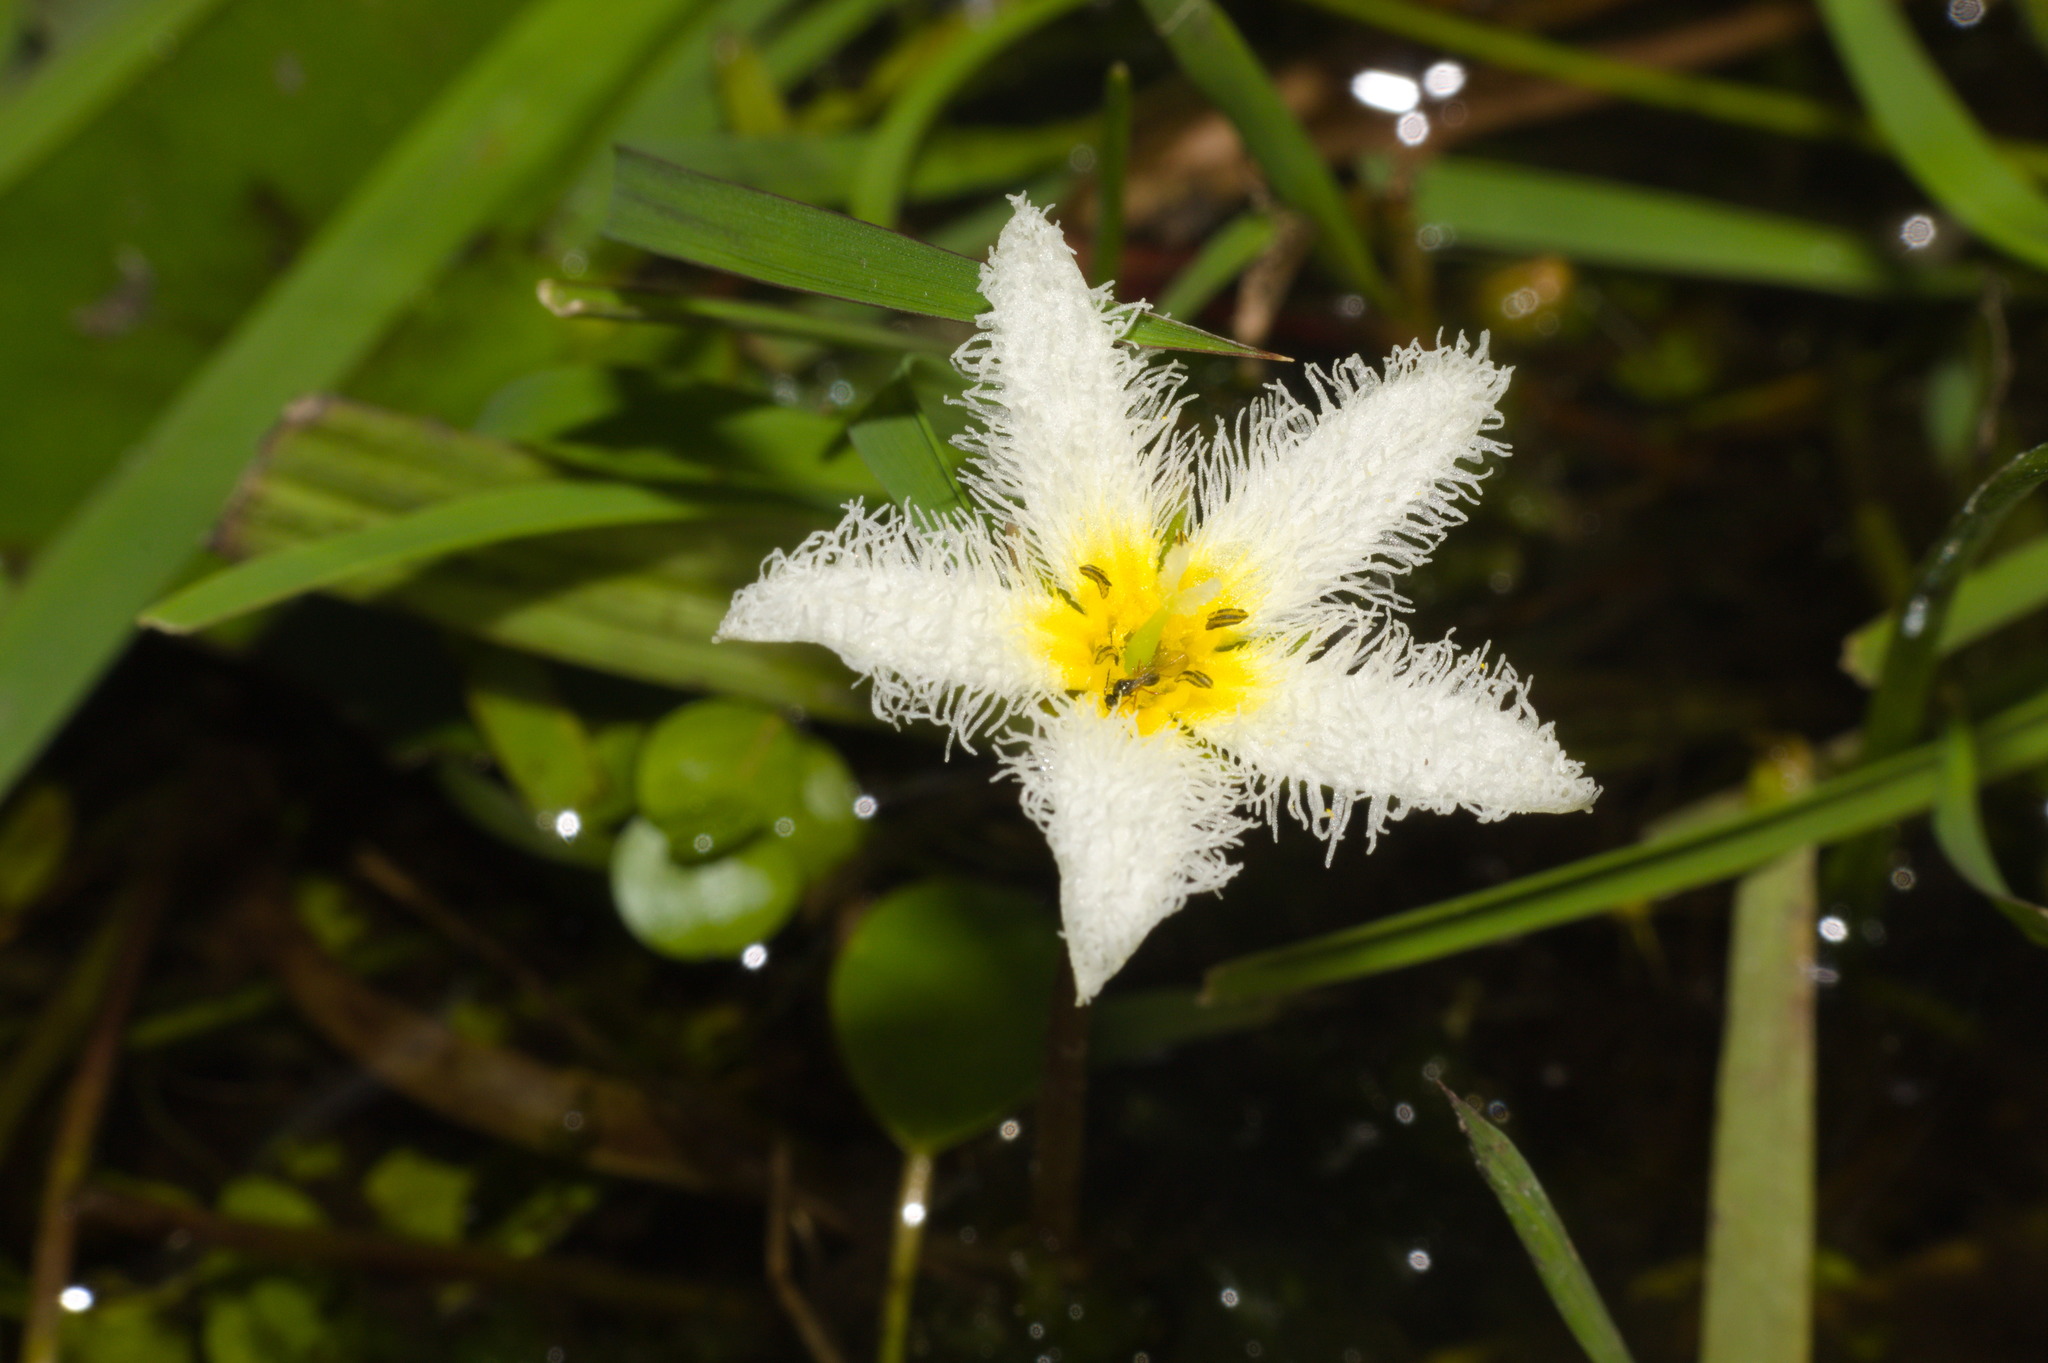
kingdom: Plantae
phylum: Tracheophyta
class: Magnoliopsida
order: Asterales
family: Menyanthaceae
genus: Nymphoides
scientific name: Nymphoides humboldtiana
